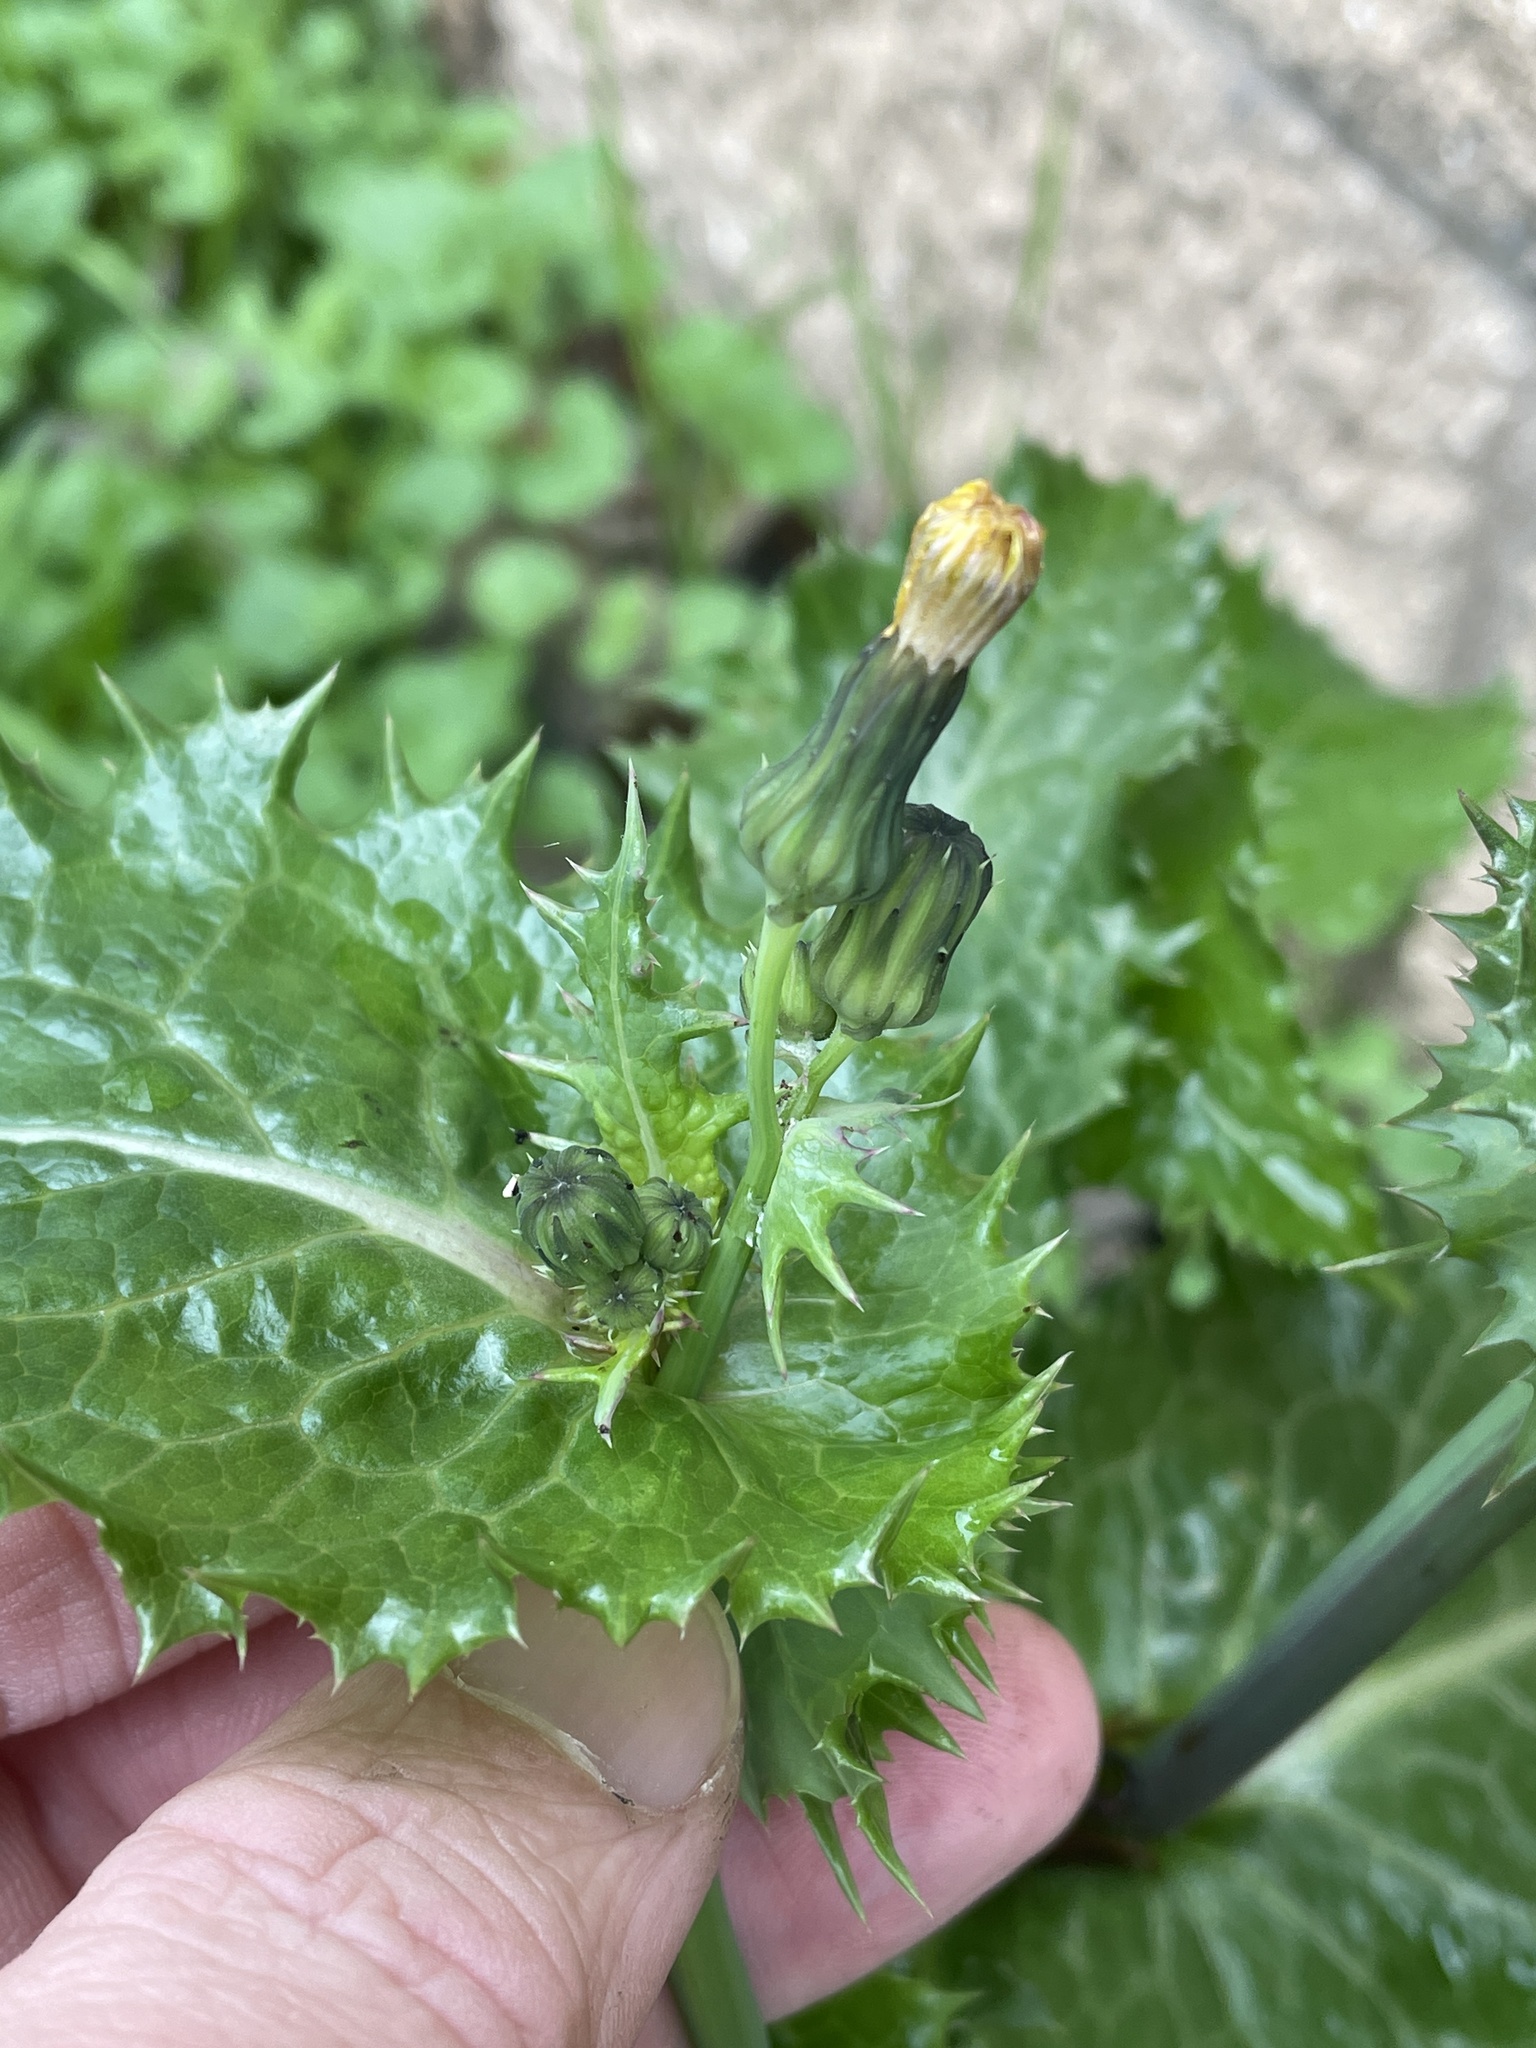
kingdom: Plantae
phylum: Tracheophyta
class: Magnoliopsida
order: Asterales
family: Asteraceae
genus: Sonchus
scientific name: Sonchus asper
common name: Prickly sow-thistle
